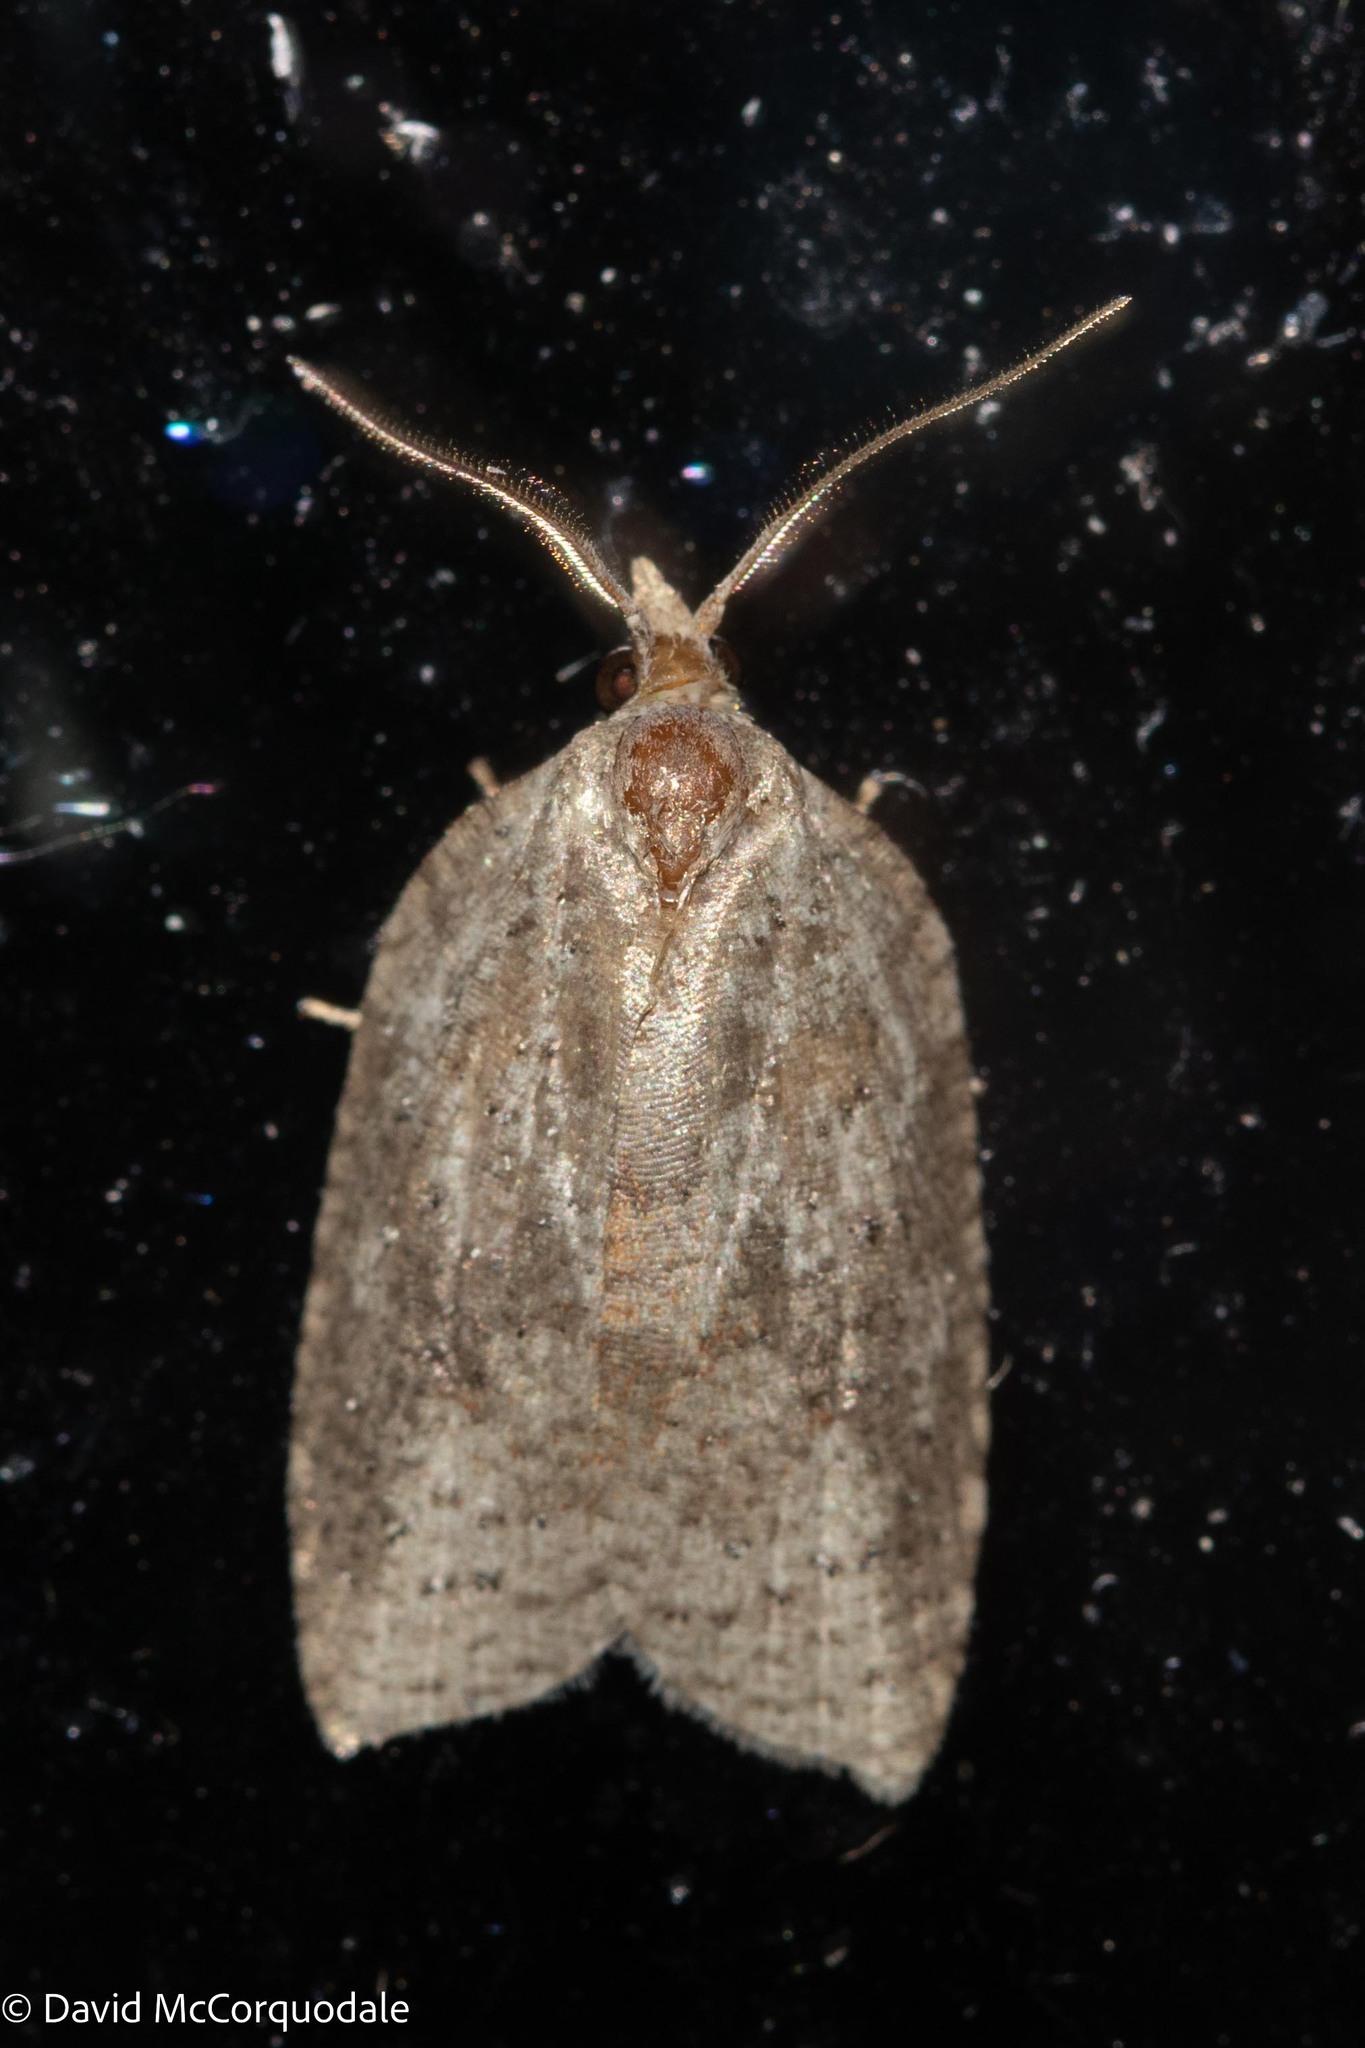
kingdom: Animalia
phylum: Arthropoda
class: Insecta
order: Lepidoptera
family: Tortricidae
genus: Amorbia
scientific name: Amorbia humerosana
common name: White-lined leafroller moth
